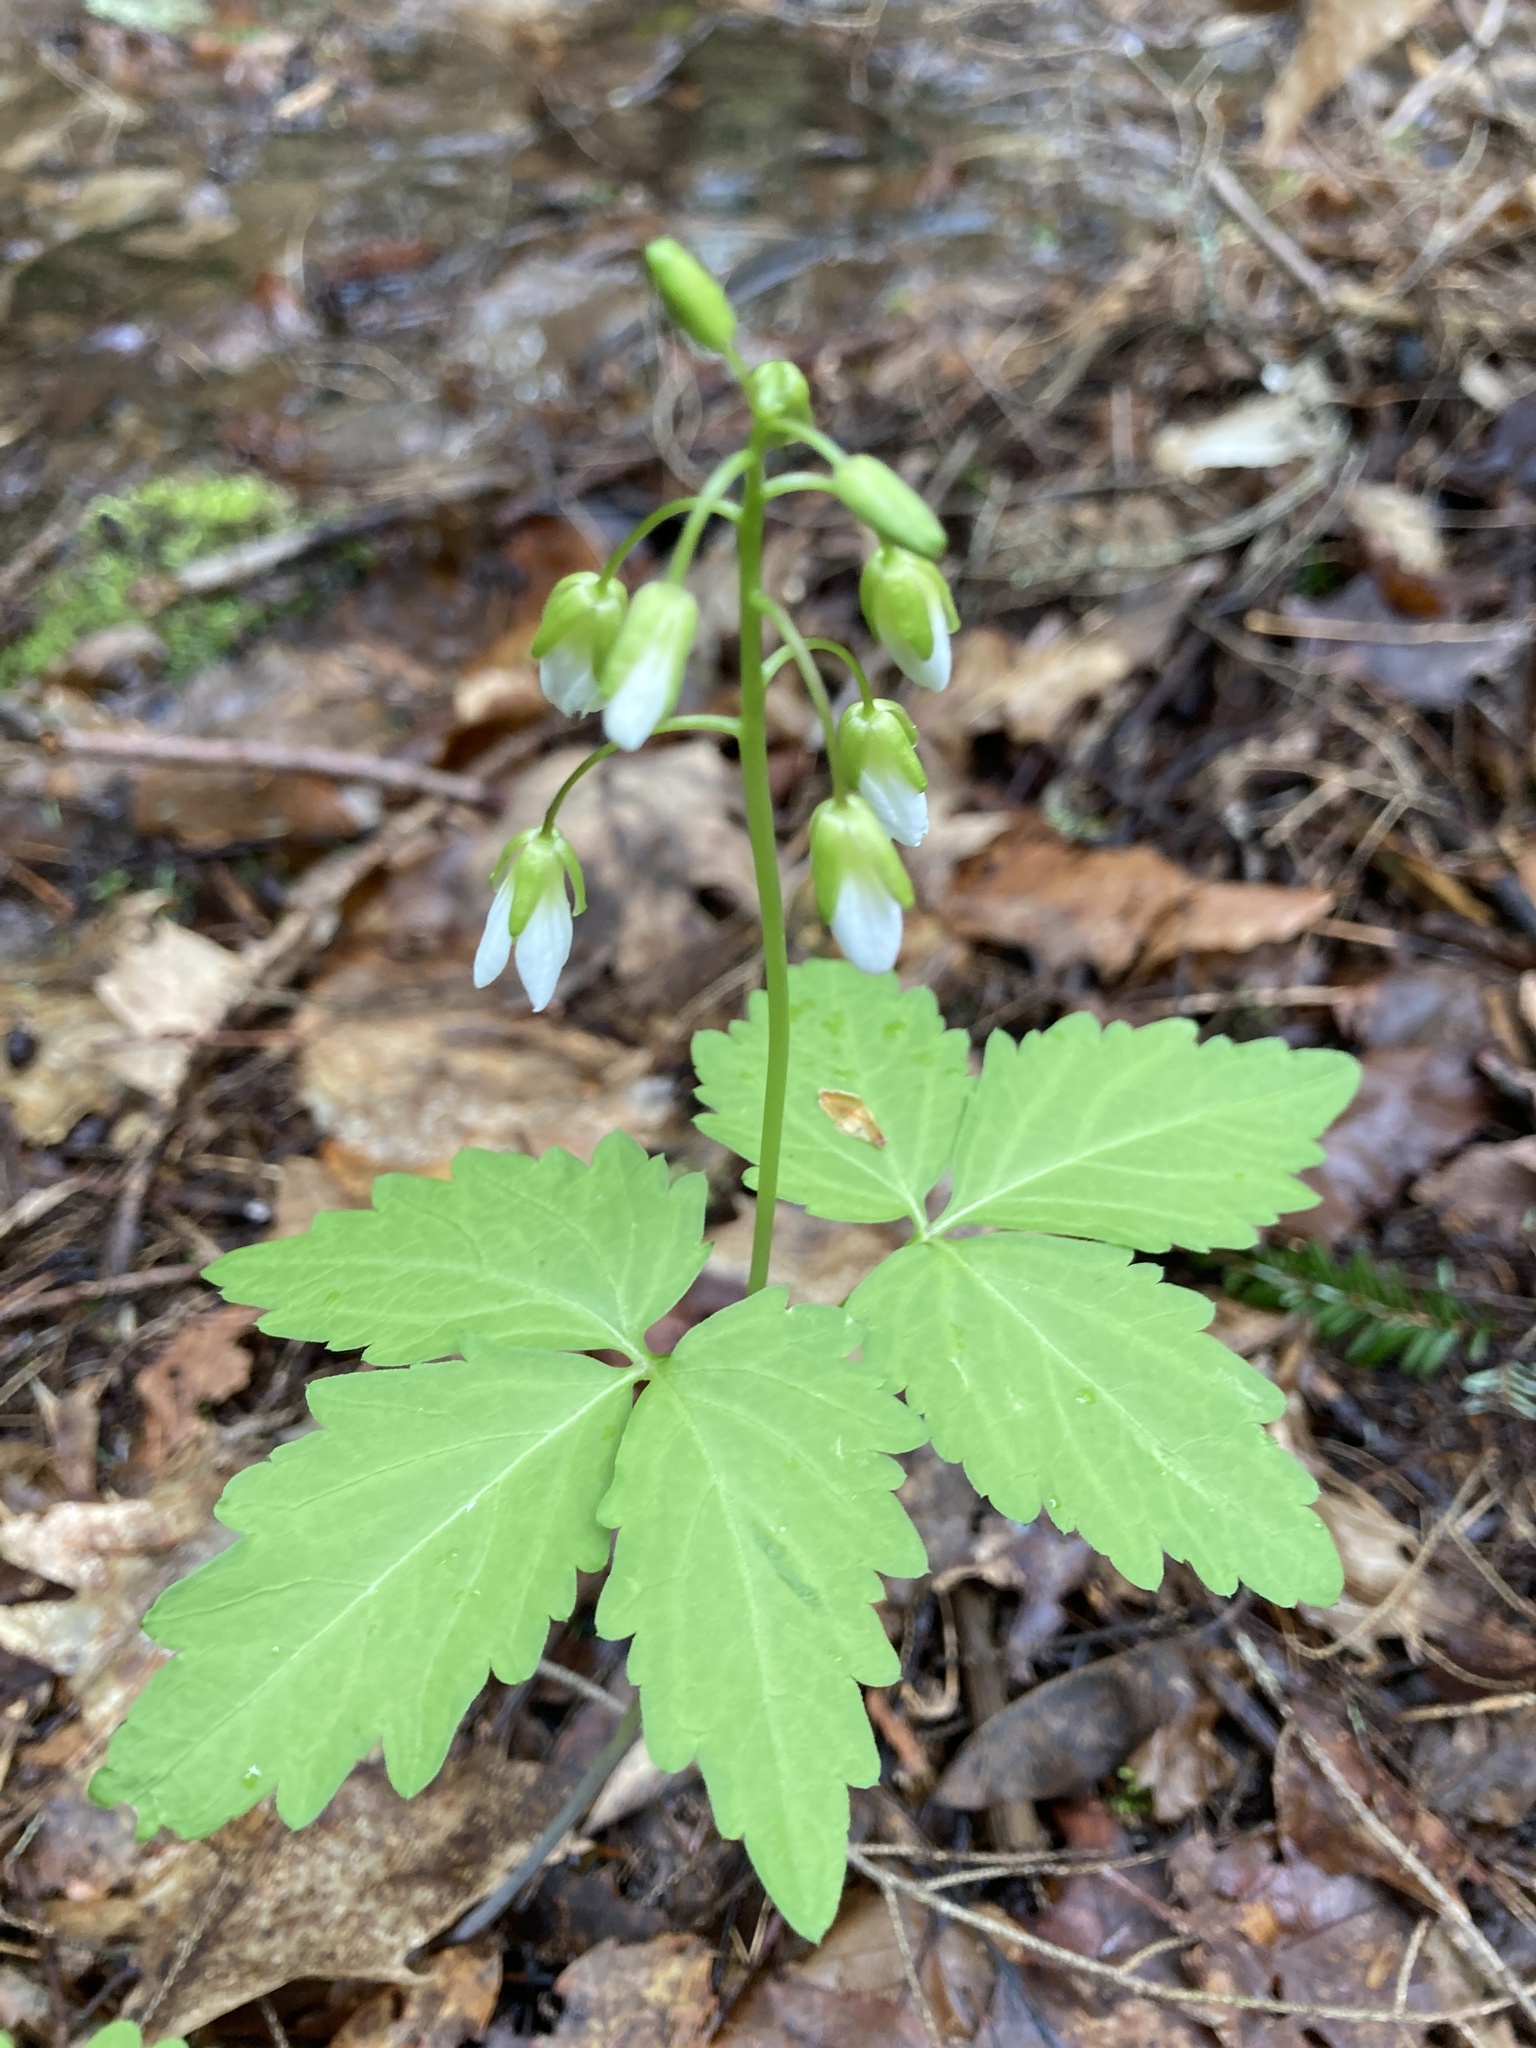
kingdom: Plantae
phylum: Tracheophyta
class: Magnoliopsida
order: Brassicales
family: Brassicaceae
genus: Cardamine
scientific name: Cardamine diphylla
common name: Broad-leaved toothwort
